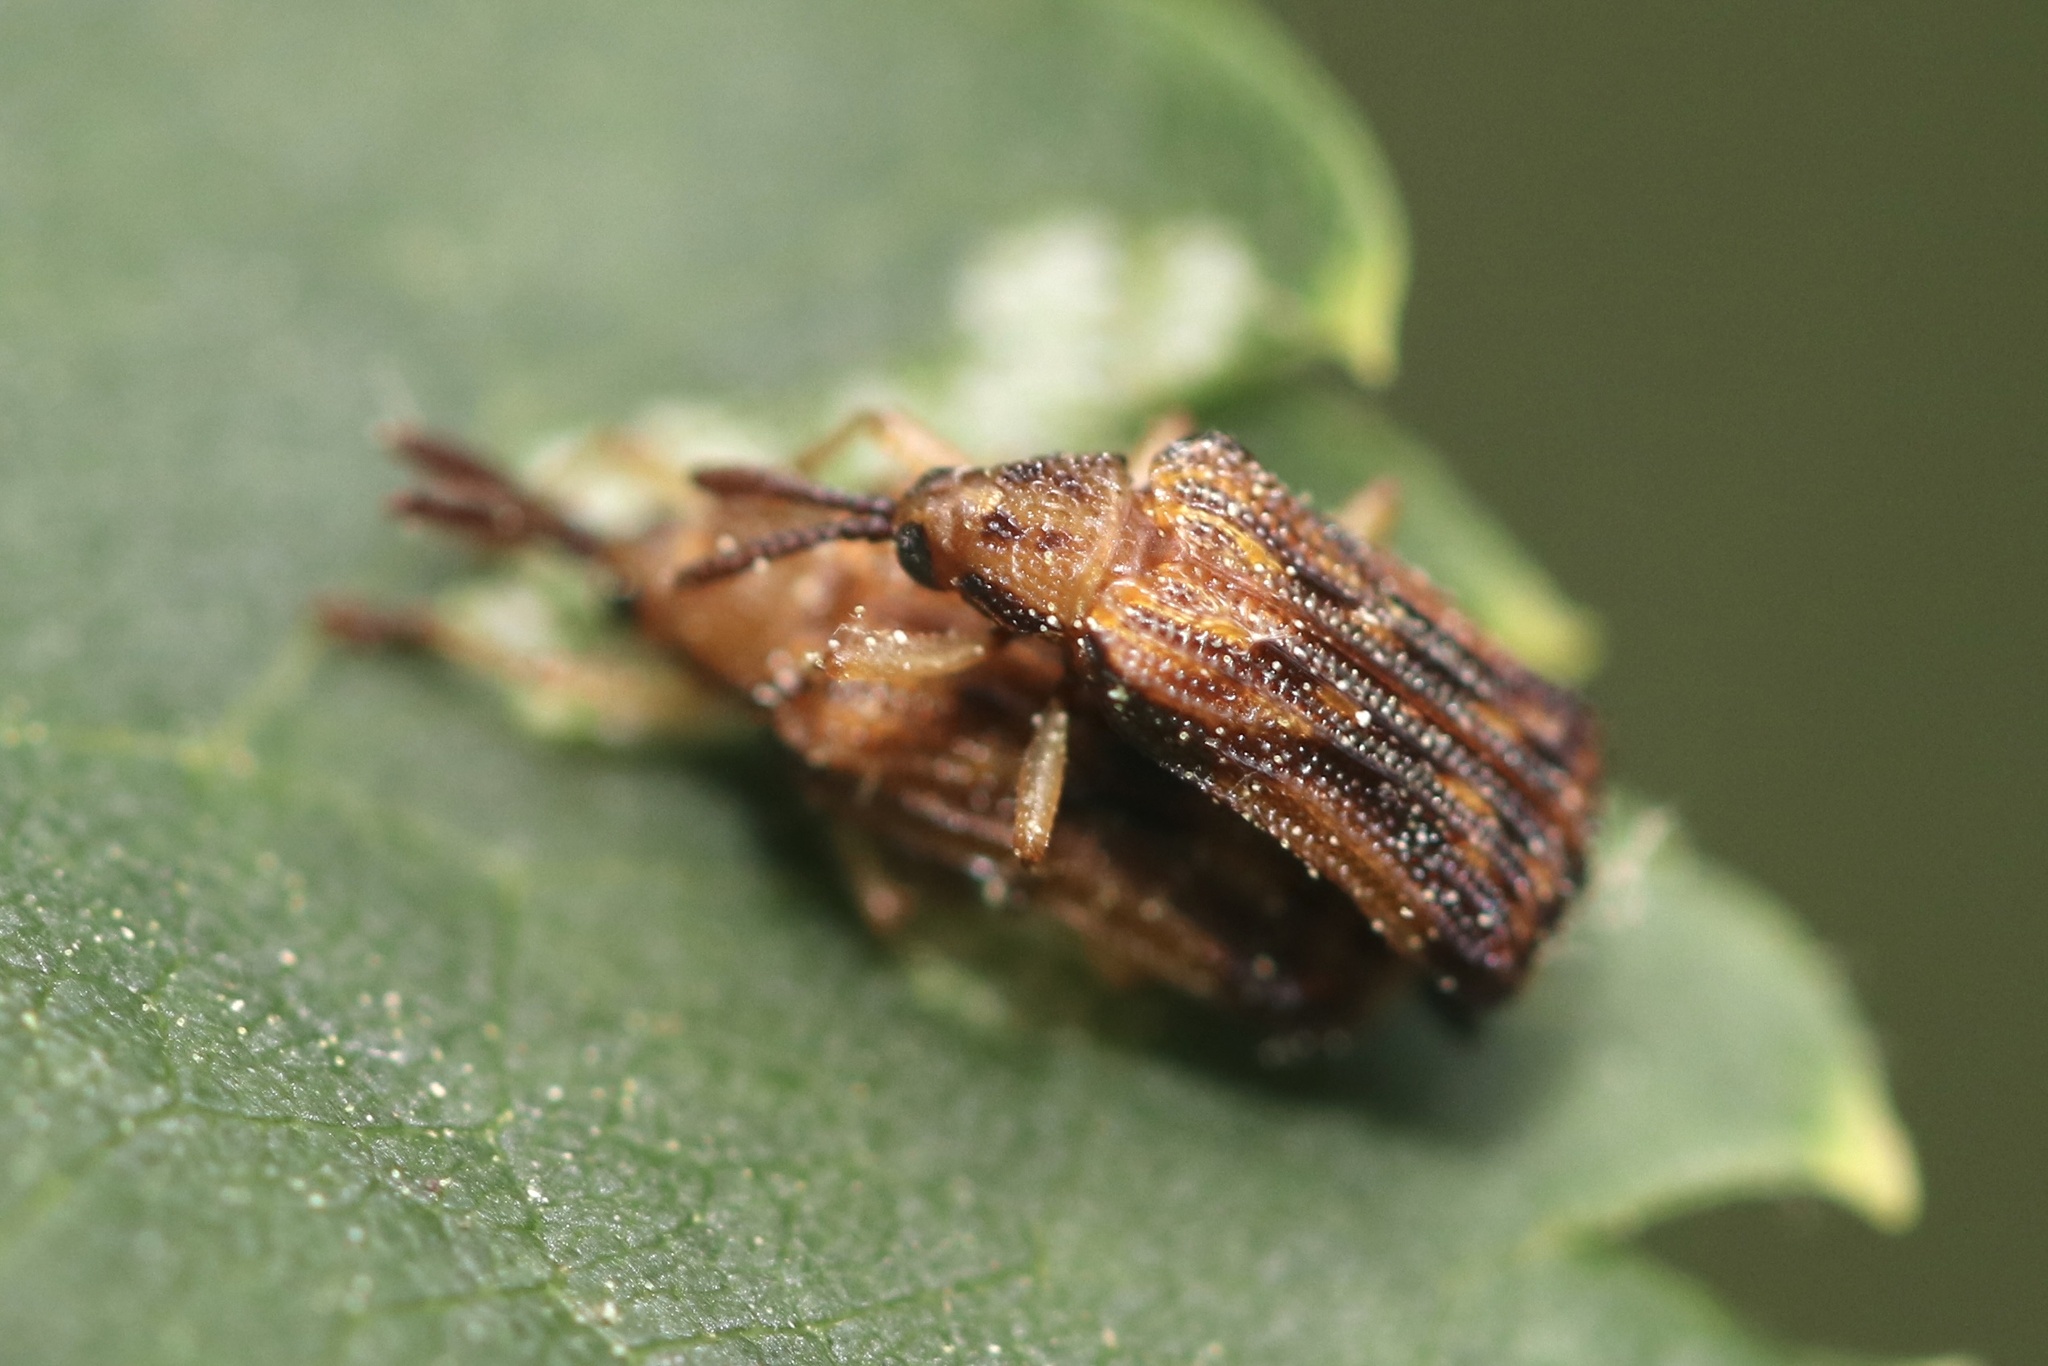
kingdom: Animalia
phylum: Arthropoda
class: Insecta
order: Coleoptera
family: Chrysomelidae
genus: Baliosus
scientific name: Baliosus nervosus
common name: Basswood leaf miner
